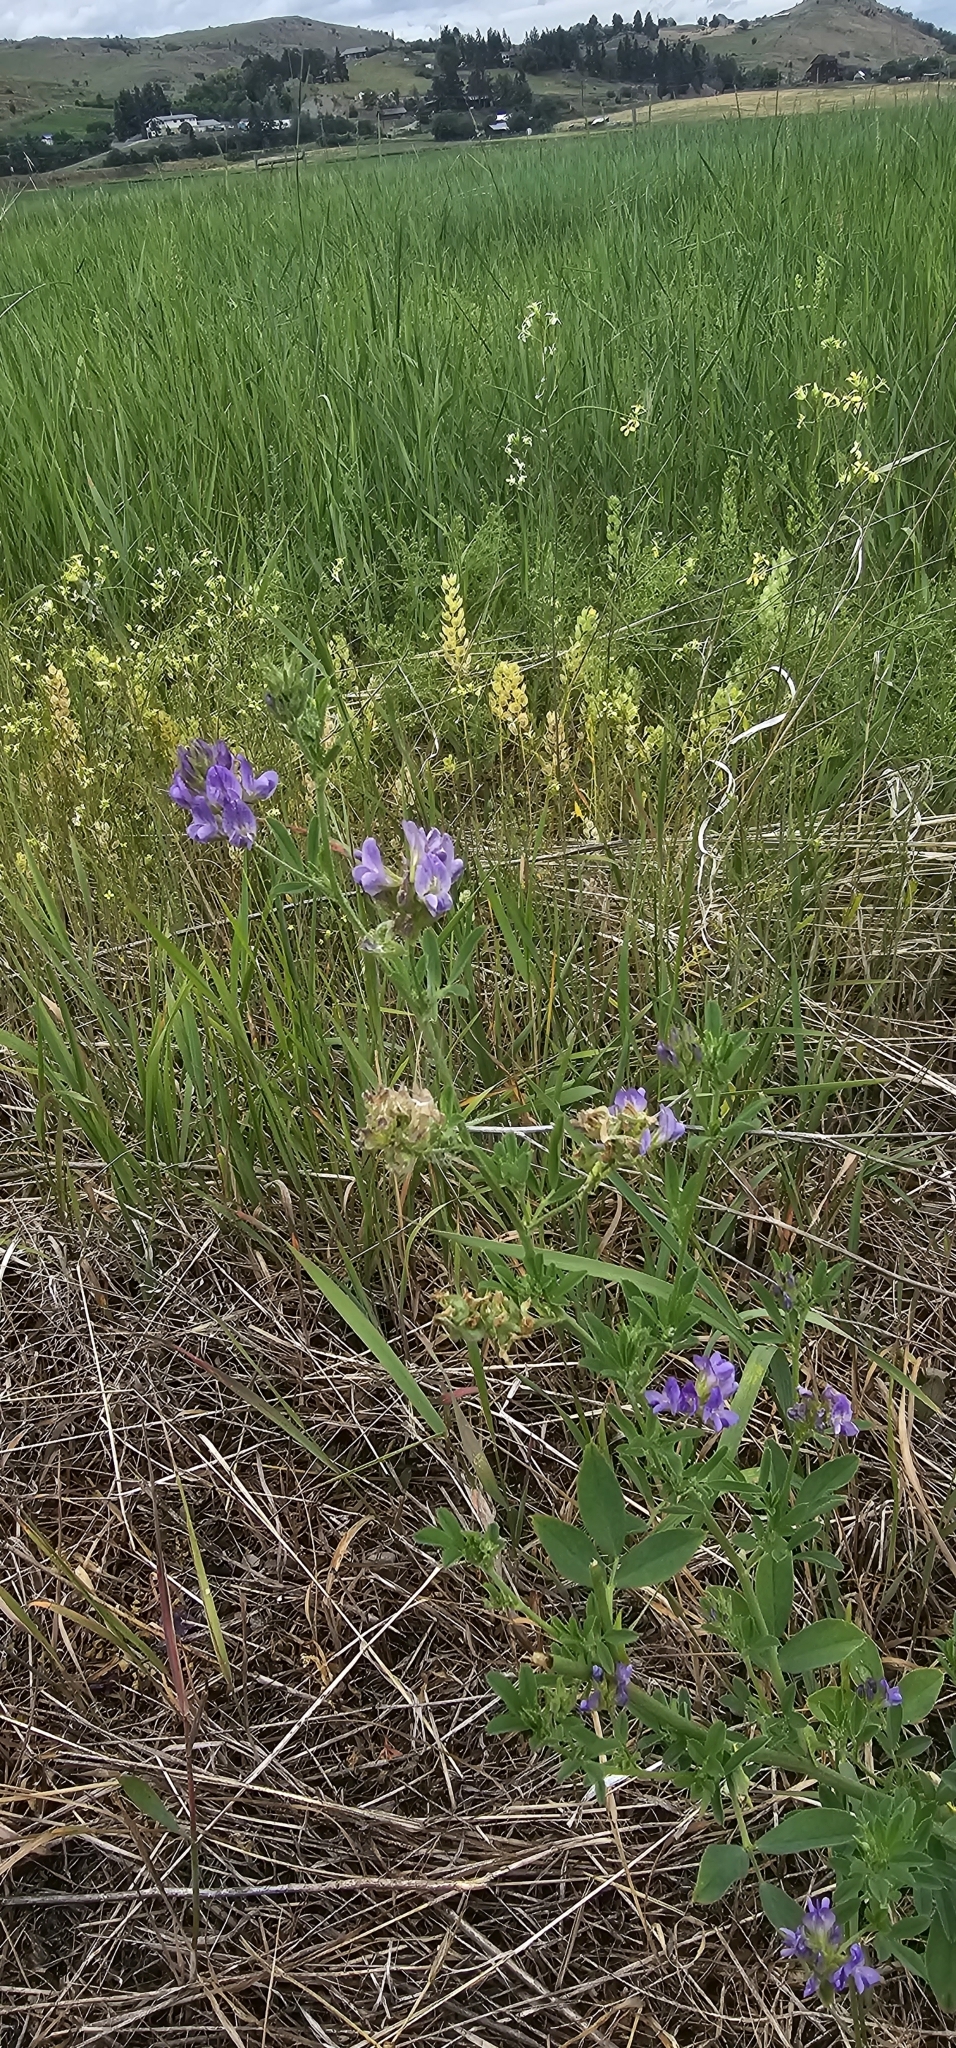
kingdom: Plantae
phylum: Tracheophyta
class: Magnoliopsida
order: Fabales
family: Fabaceae
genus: Medicago
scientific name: Medicago sativa
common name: Alfalfa
